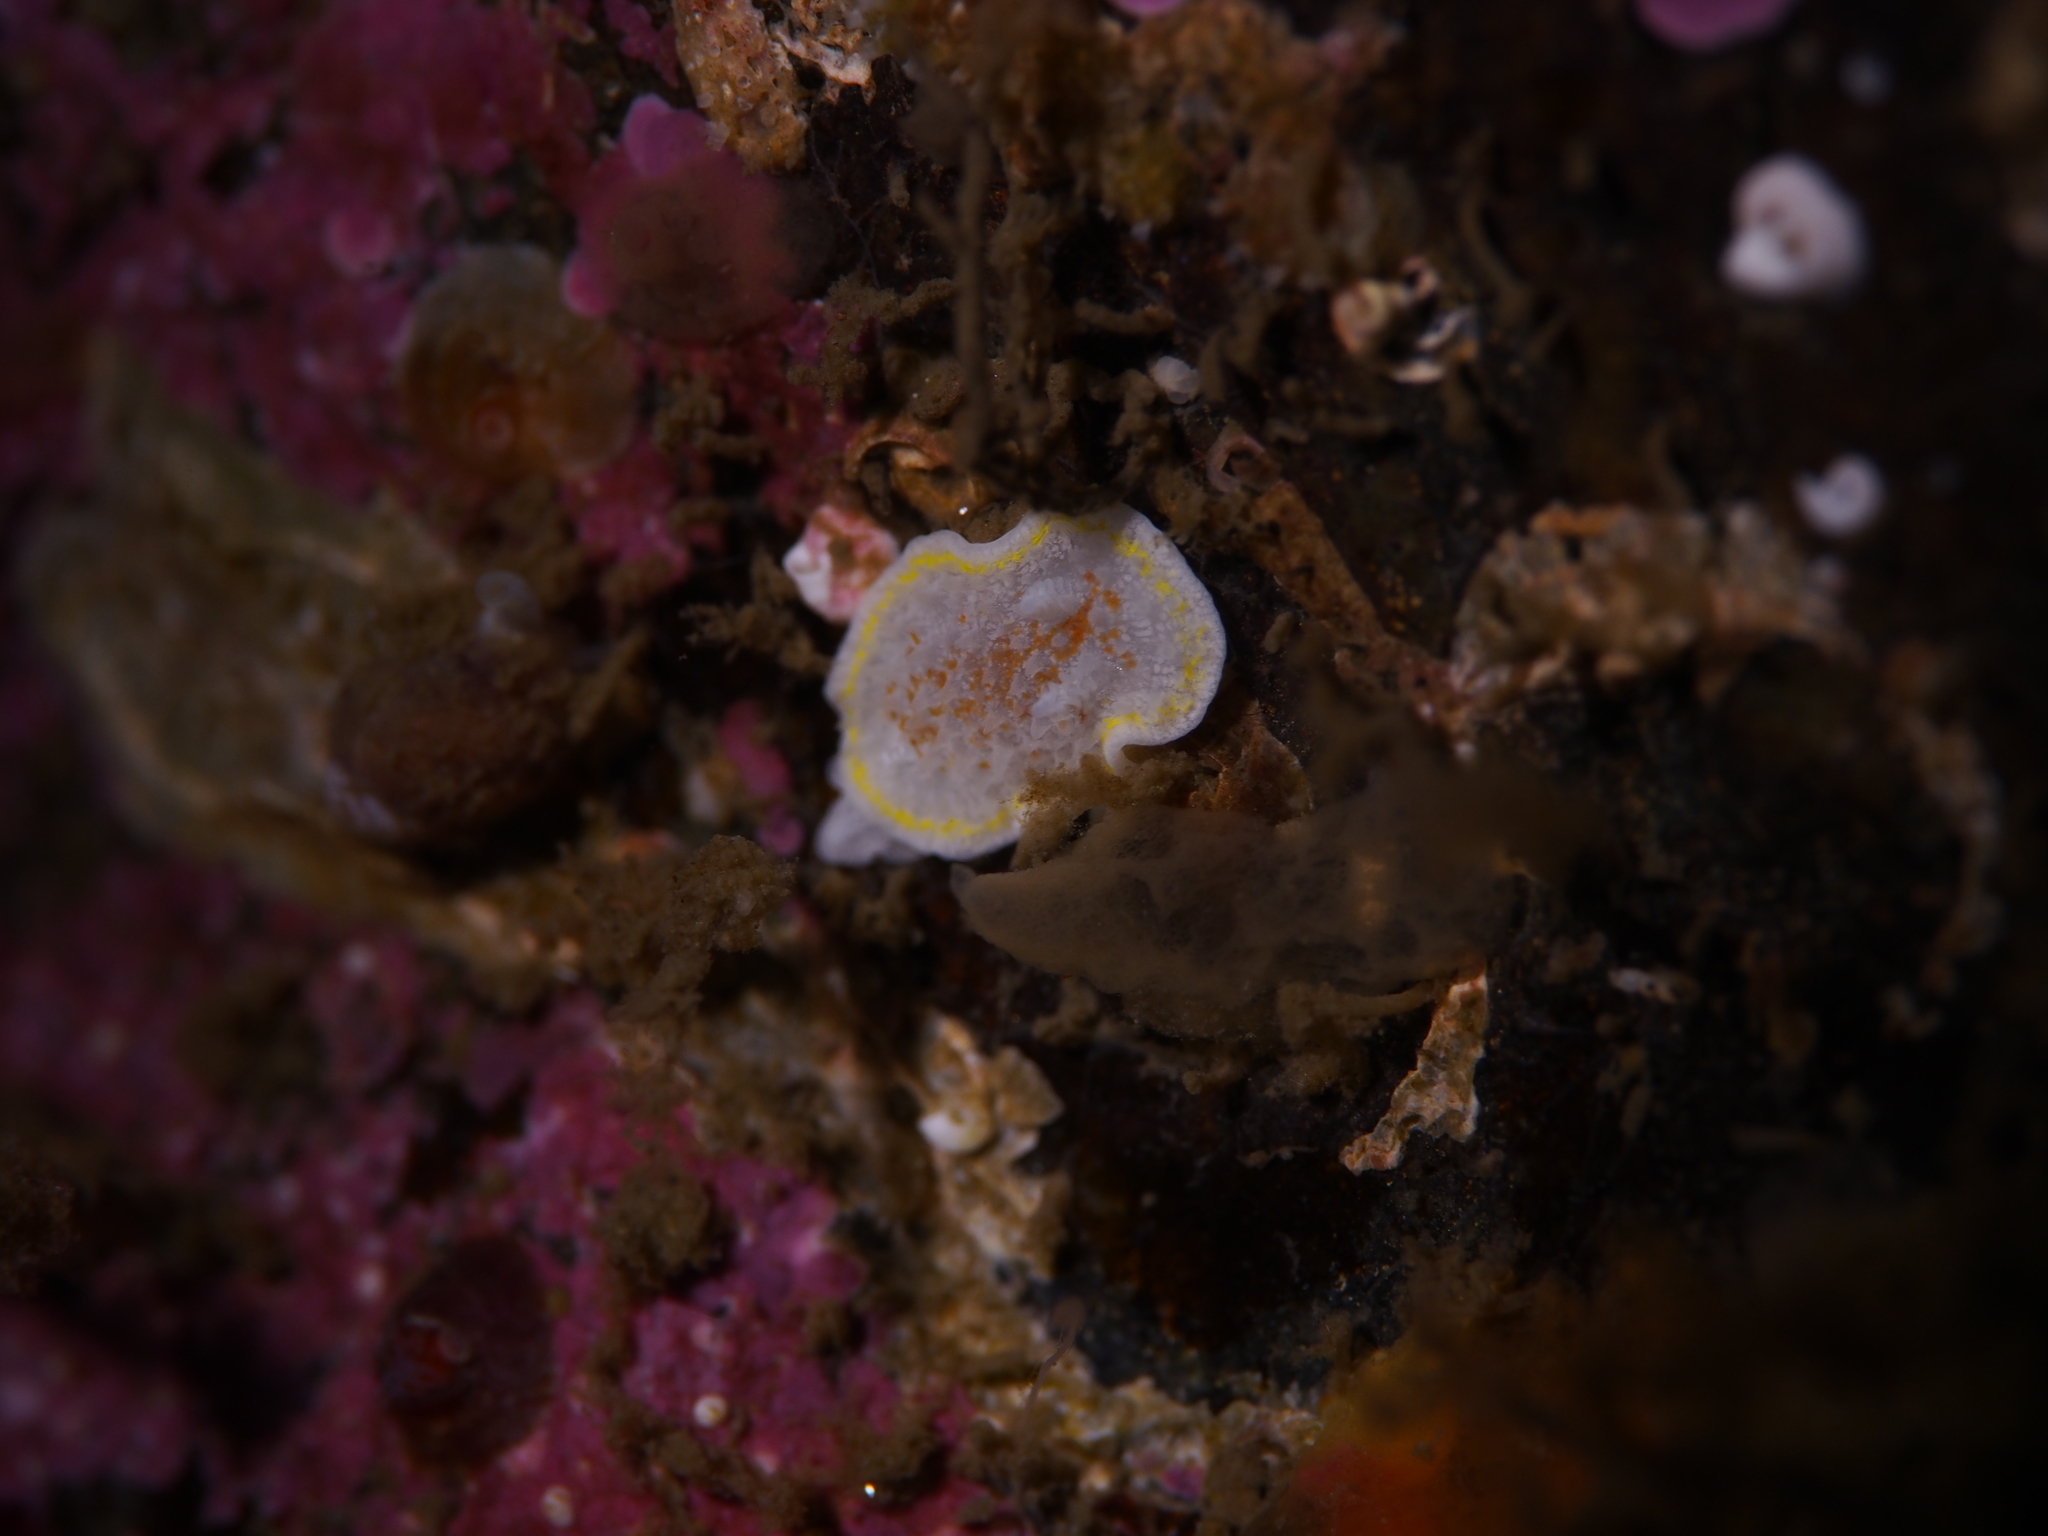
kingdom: Animalia
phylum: Mollusca
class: Gastropoda
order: Nudibranchia
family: Calycidorididae
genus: Diaphorodoris
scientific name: Diaphorodoris luteocincta
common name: Fried egg nudibranch
